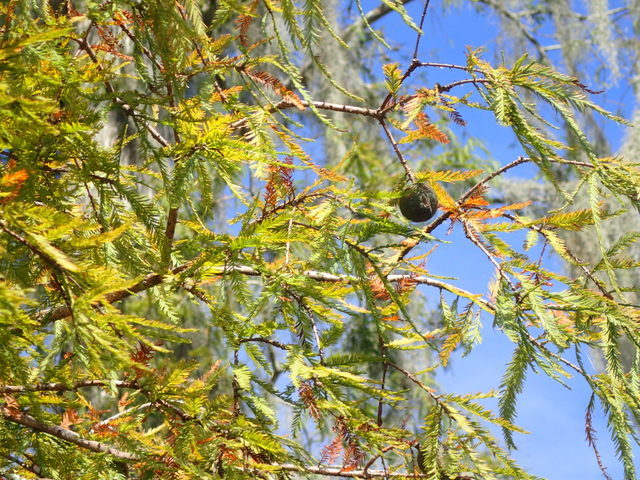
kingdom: Plantae
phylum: Tracheophyta
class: Pinopsida
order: Pinales
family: Cupressaceae
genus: Taxodium
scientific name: Taxodium distichum
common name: Bald cypress
